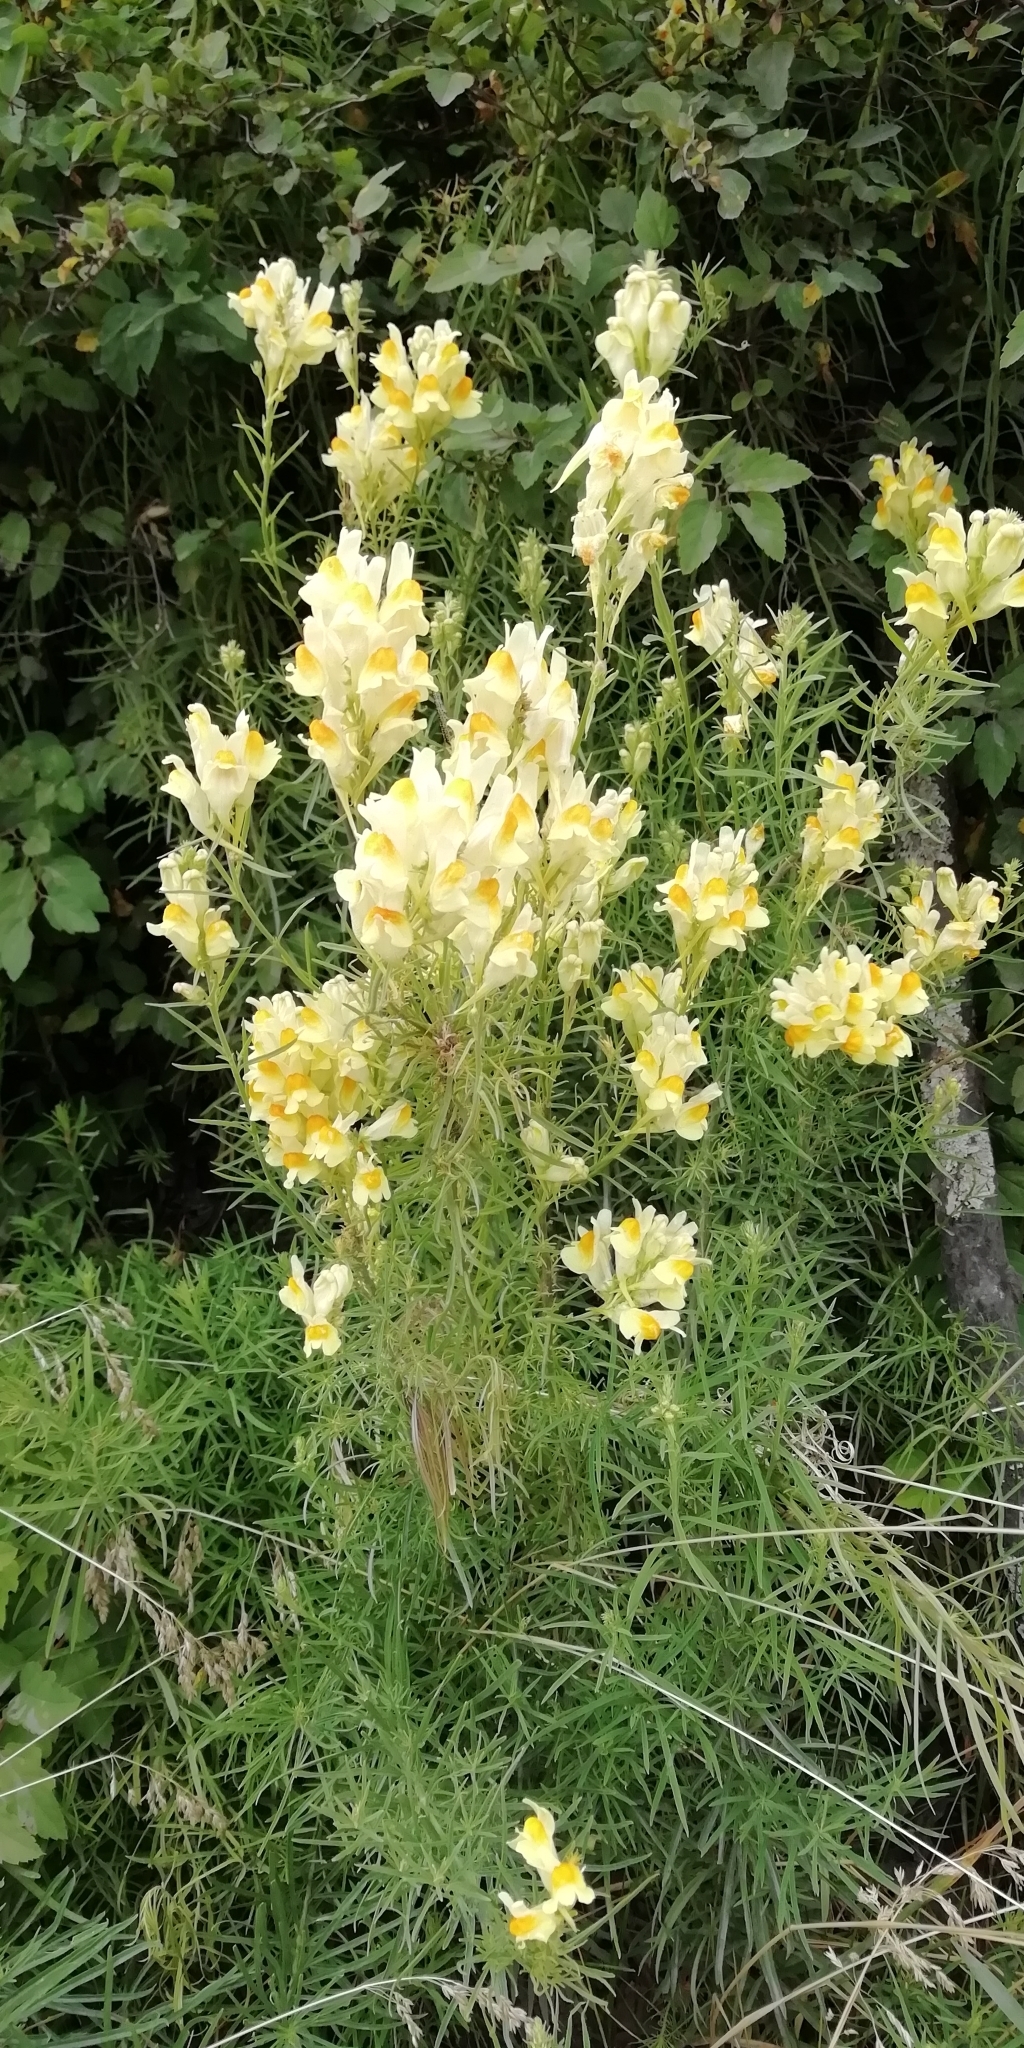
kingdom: Plantae
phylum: Tracheophyta
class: Magnoliopsida
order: Lamiales
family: Plantaginaceae
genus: Linaria
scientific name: Linaria vulgaris
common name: Butter and eggs
